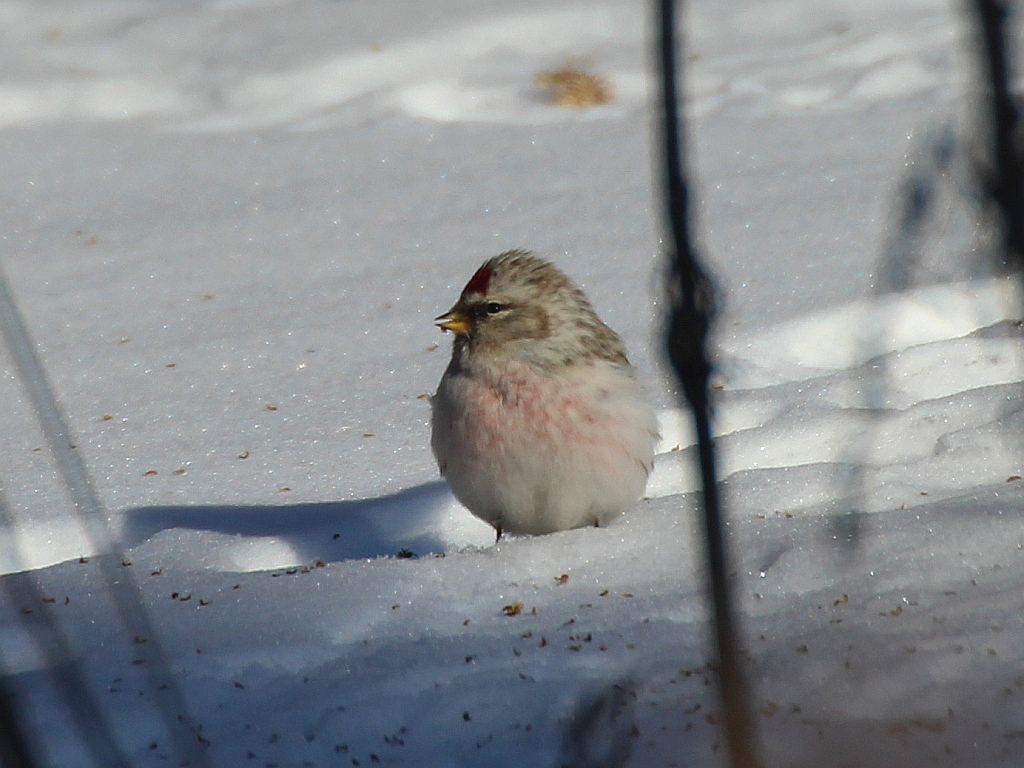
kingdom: Animalia
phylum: Chordata
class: Aves
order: Passeriformes
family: Fringillidae
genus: Acanthis
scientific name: Acanthis hornemanni
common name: Arctic redpoll
